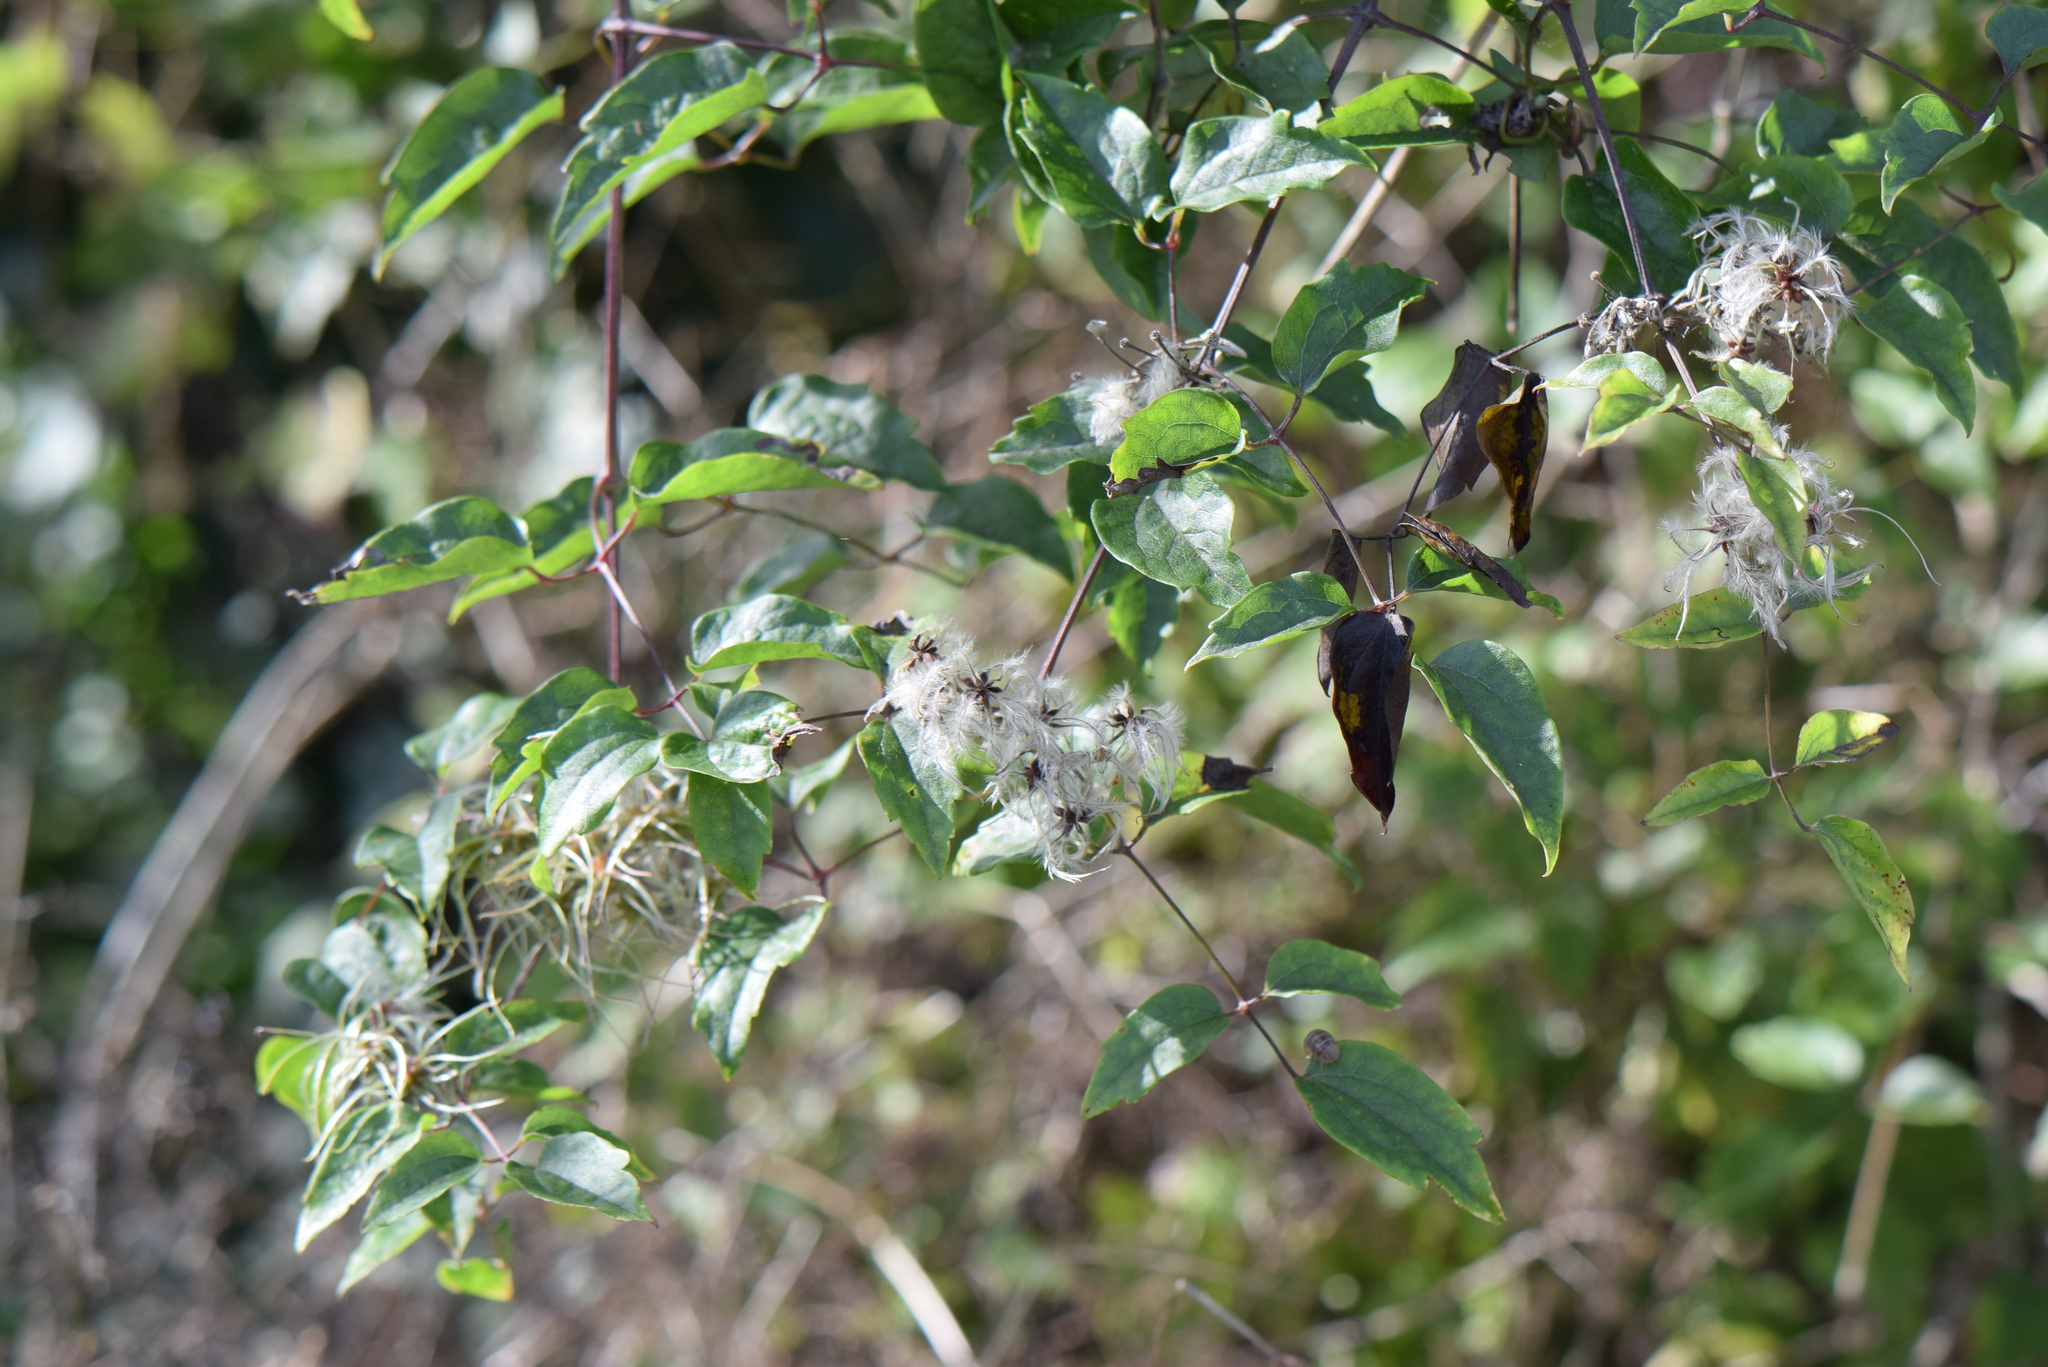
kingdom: Plantae
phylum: Tracheophyta
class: Magnoliopsida
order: Ranunculales
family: Ranunculaceae
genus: Clematis
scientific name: Clematis vitalba
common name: Evergreen clematis
